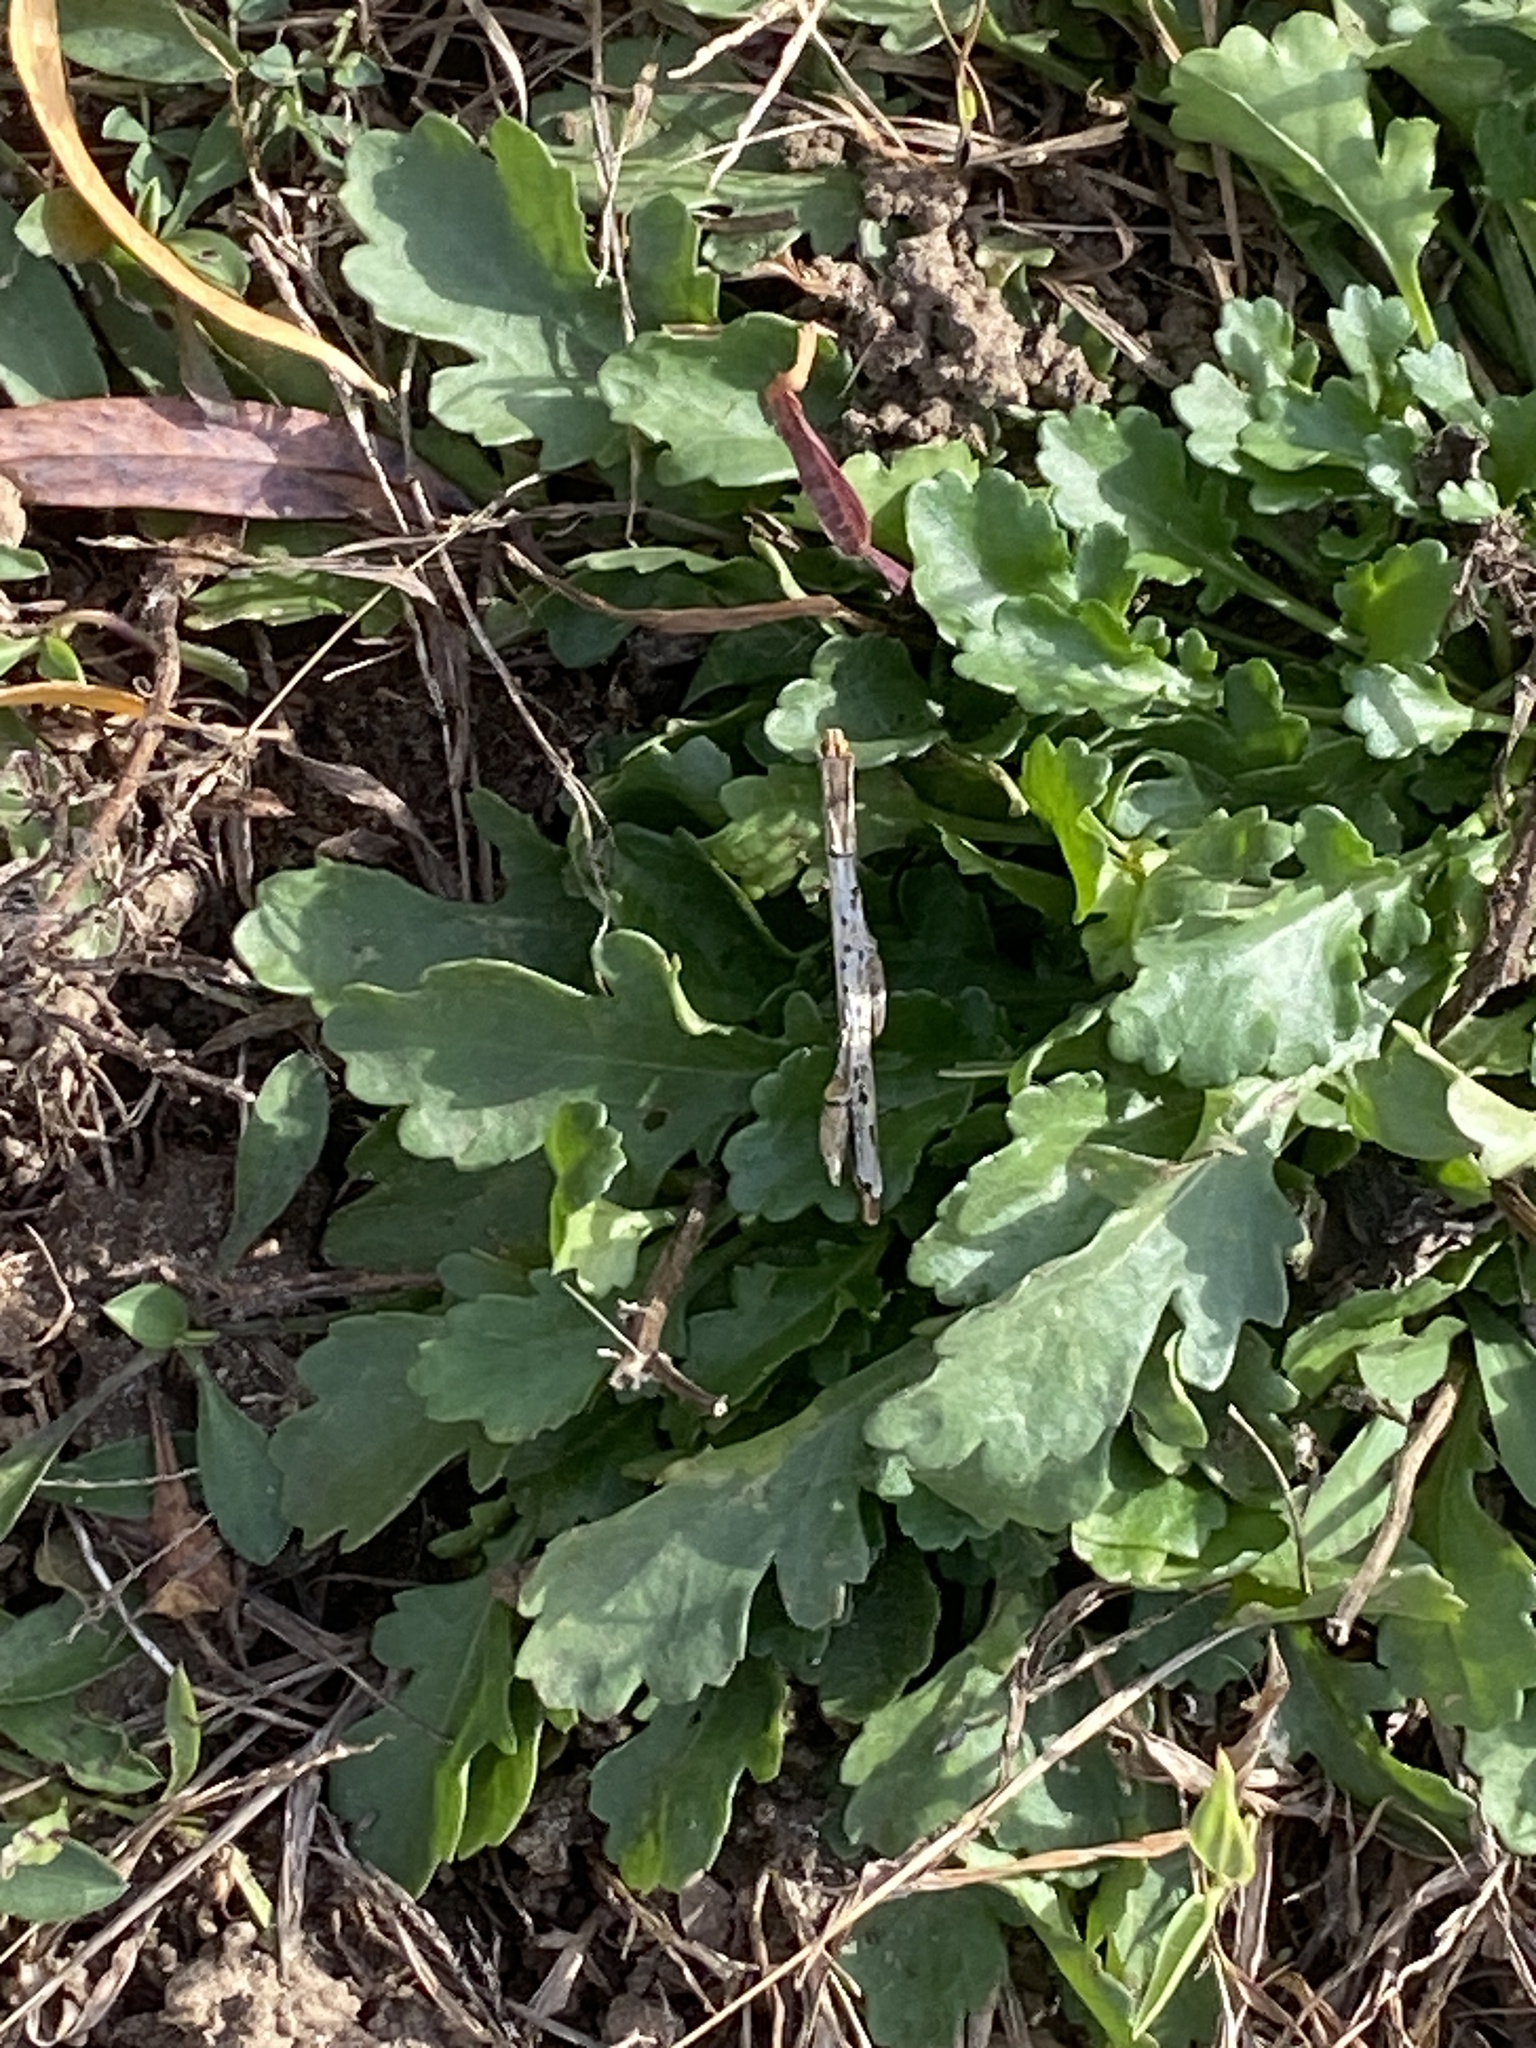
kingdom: Plantae
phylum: Tracheophyta
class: Magnoliopsida
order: Asterales
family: Asteraceae
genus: Leucanthemum
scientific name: Leucanthemum vulgare
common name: Oxeye daisy
